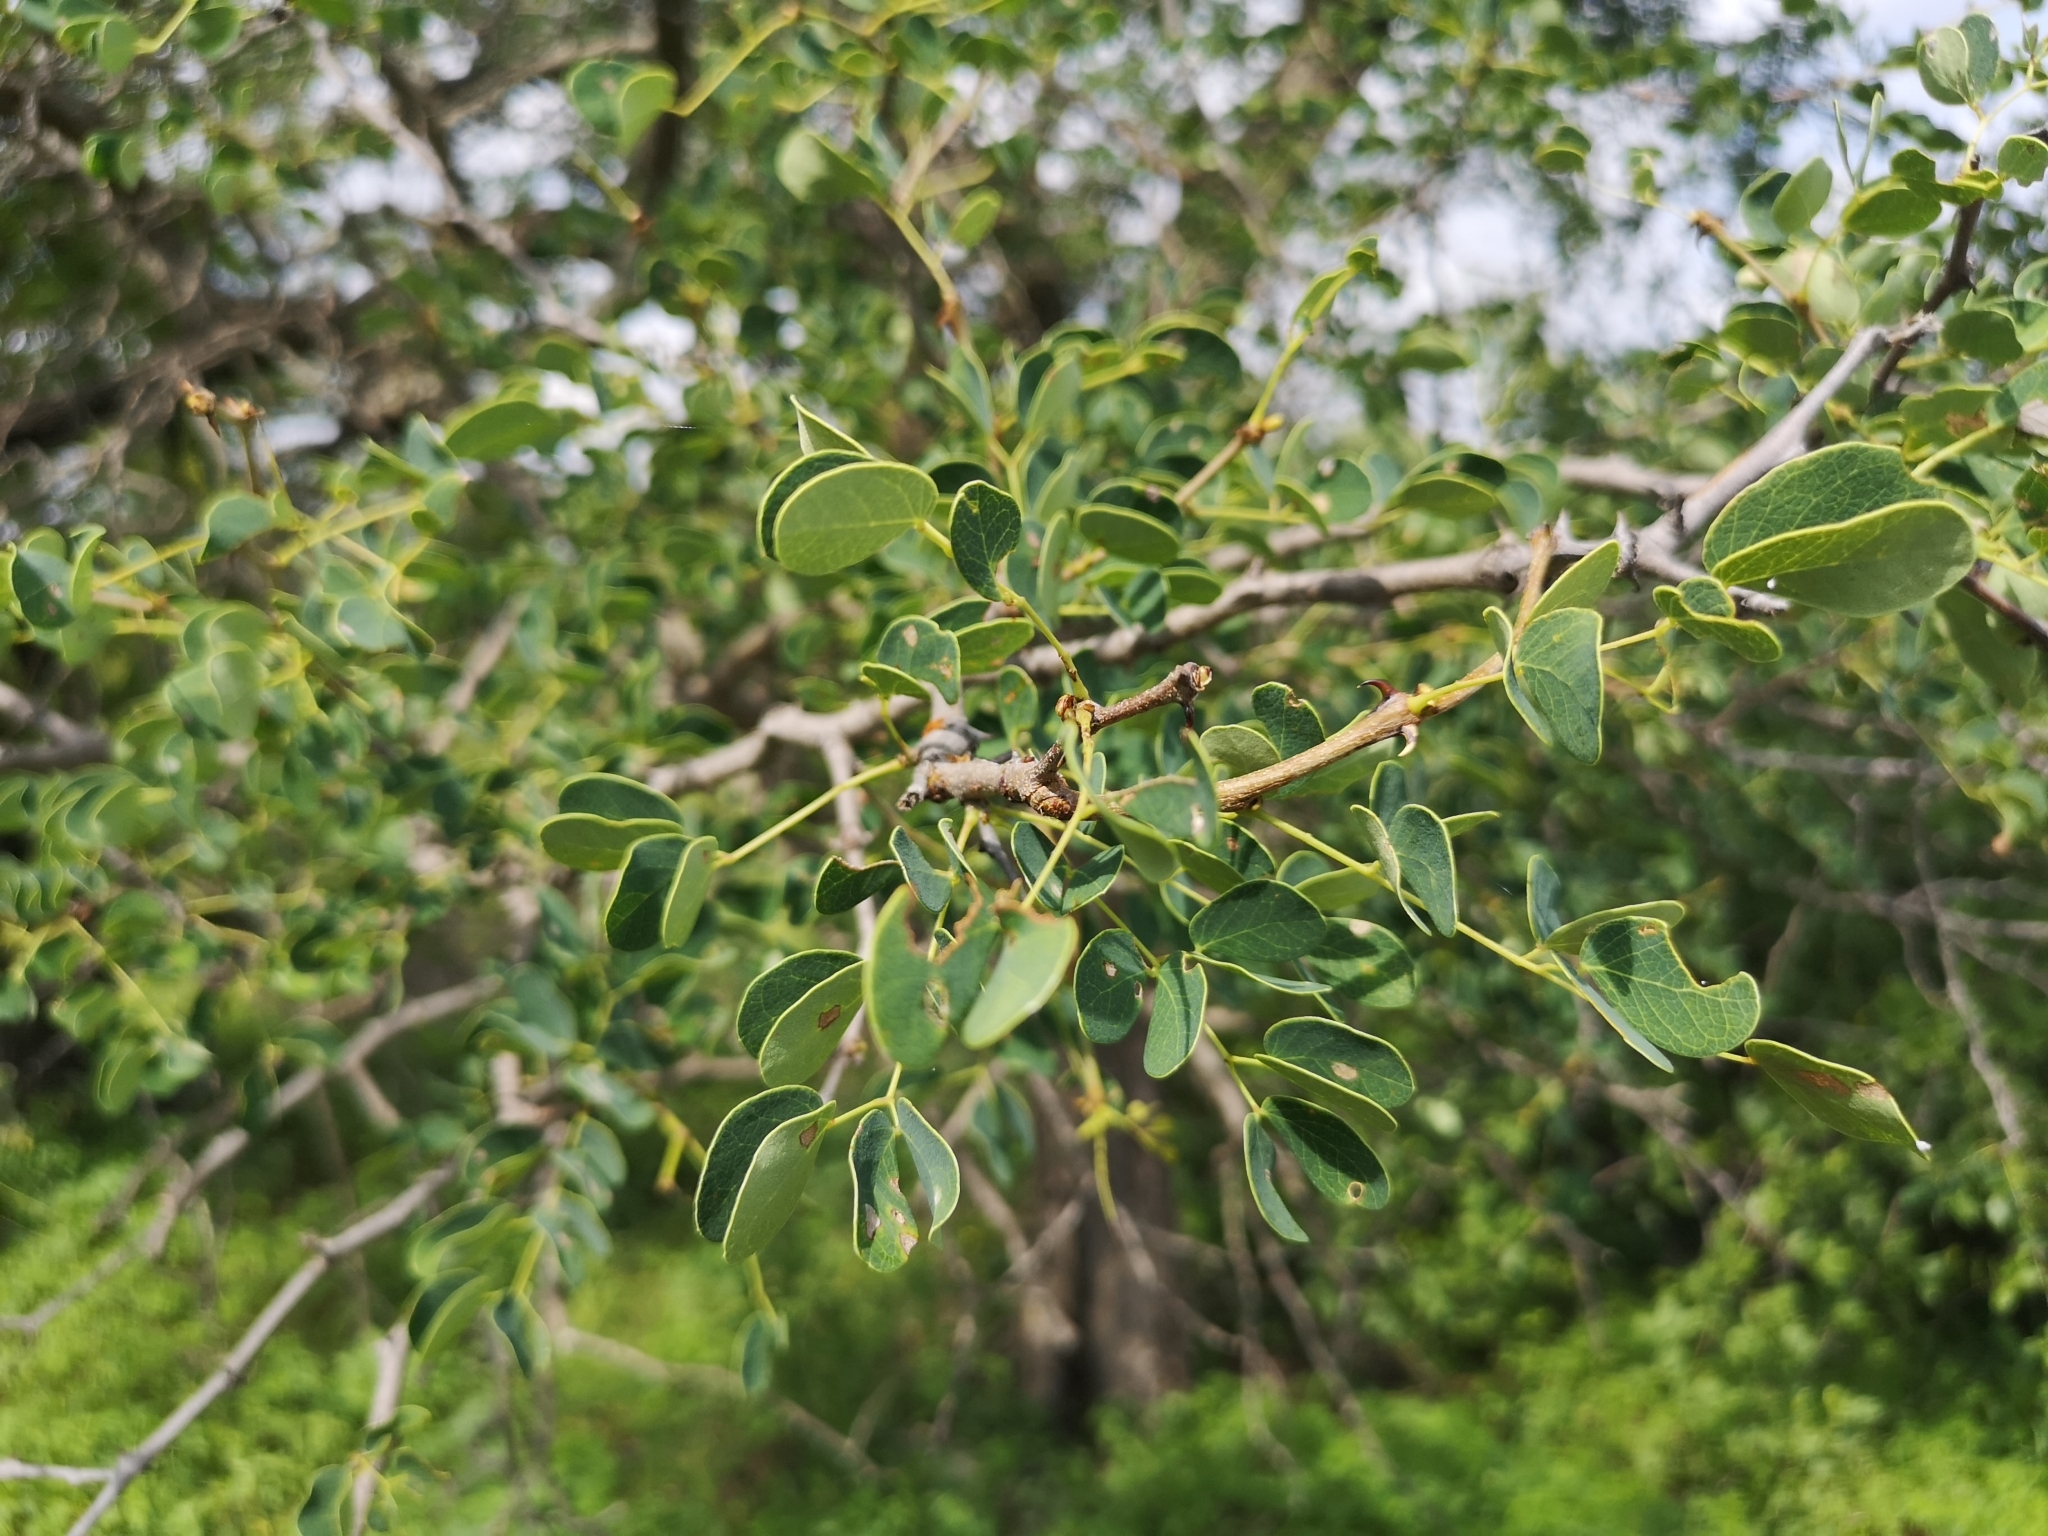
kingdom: Plantae
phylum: Tracheophyta
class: Magnoliopsida
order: Fabales
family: Fabaceae
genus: Senegalia
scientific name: Senegalia nigrescens
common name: Knobthorn
